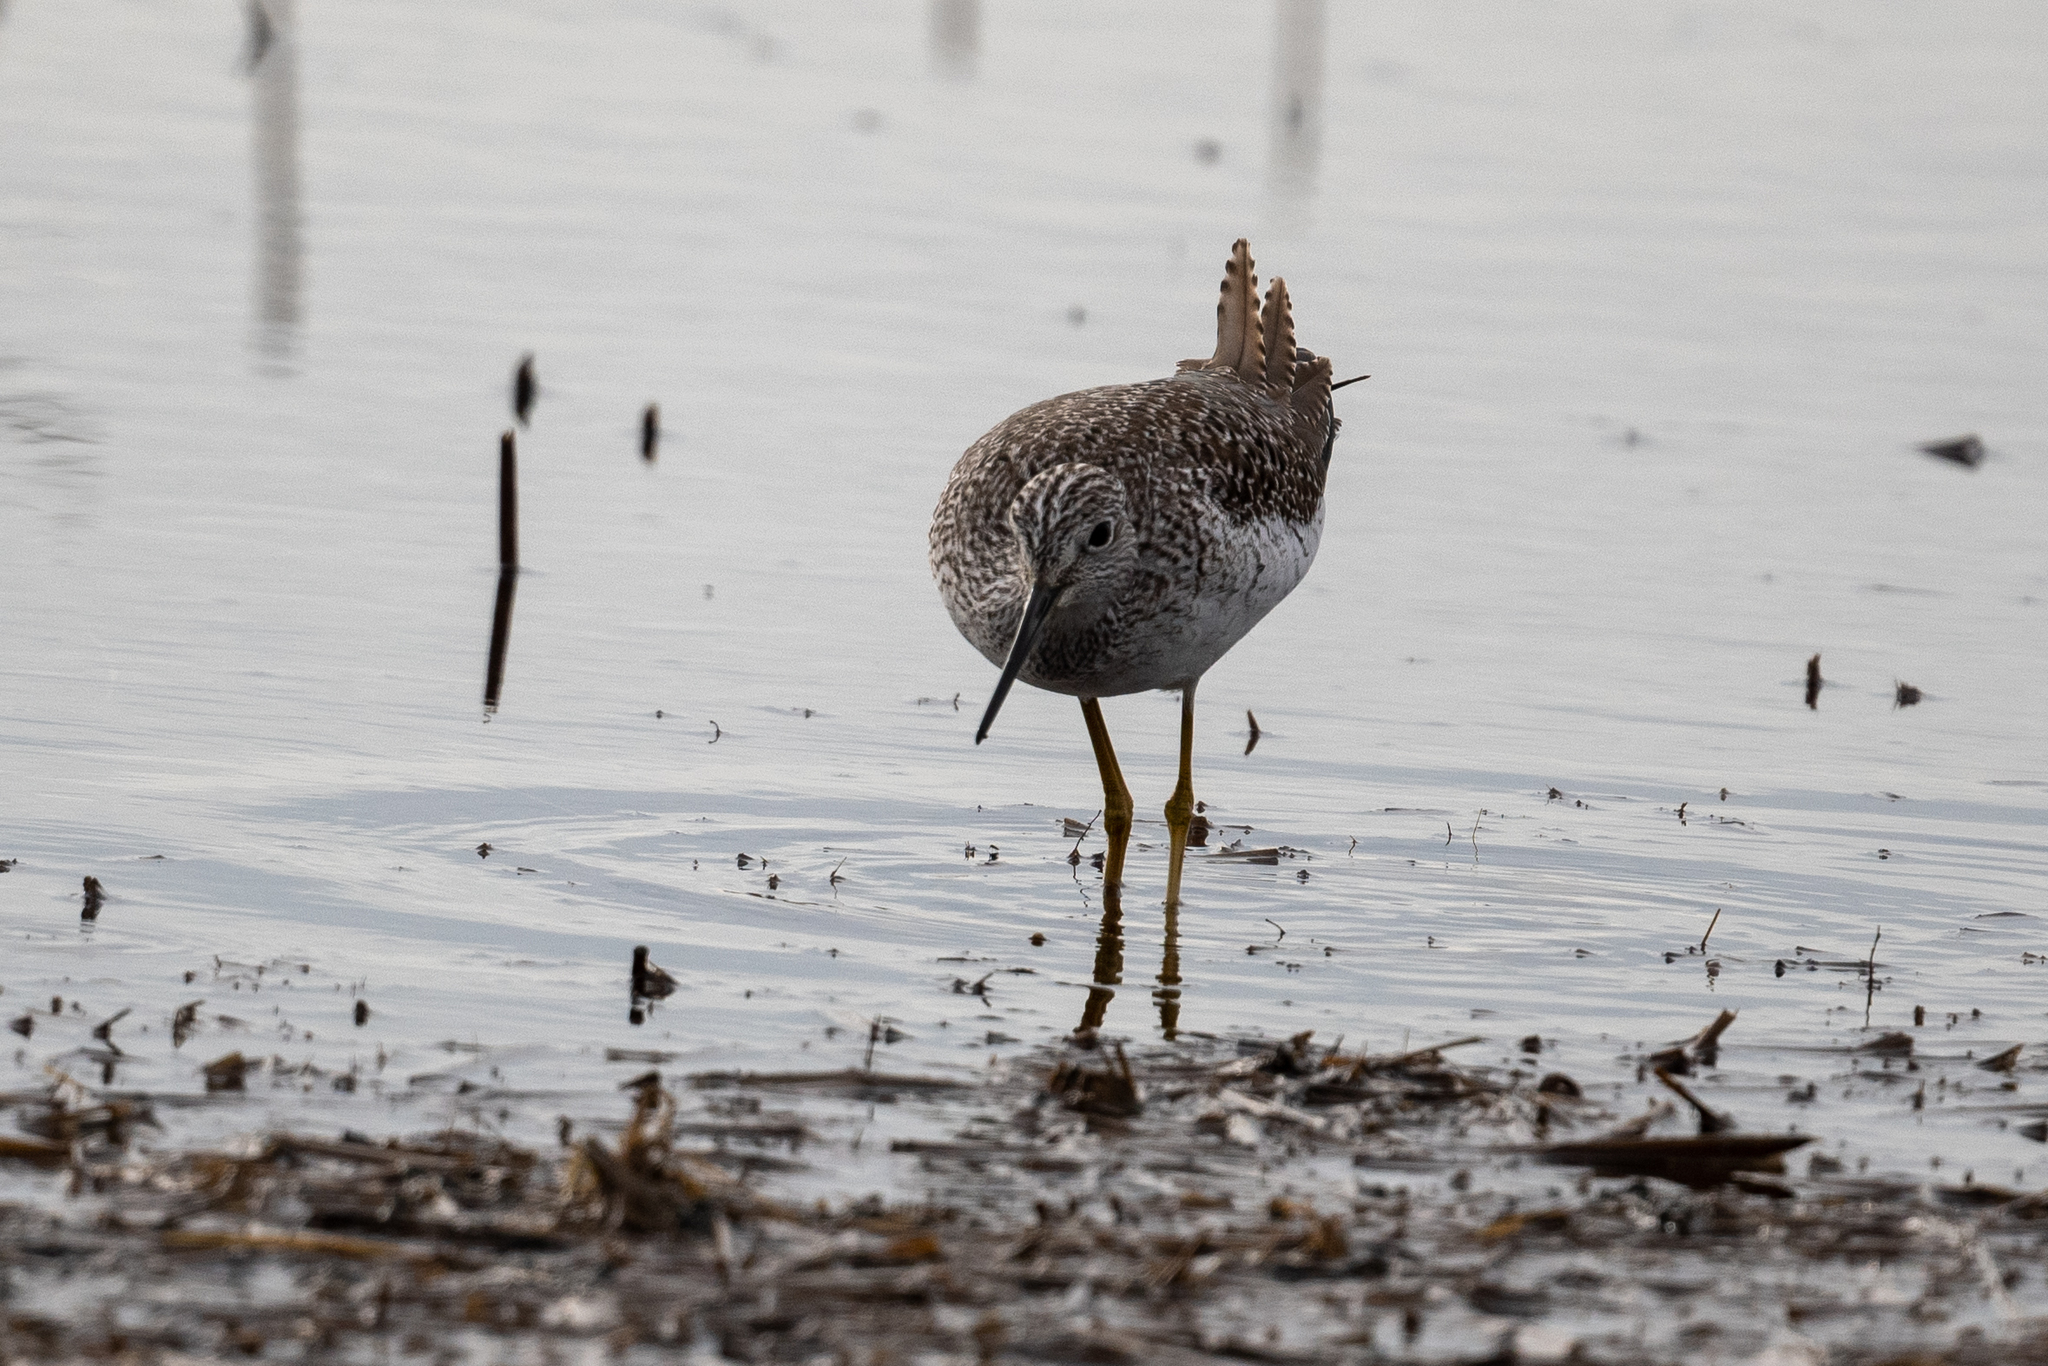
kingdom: Animalia
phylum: Chordata
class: Aves
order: Charadriiformes
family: Scolopacidae
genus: Tringa
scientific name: Tringa melanoleuca
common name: Greater yellowlegs
